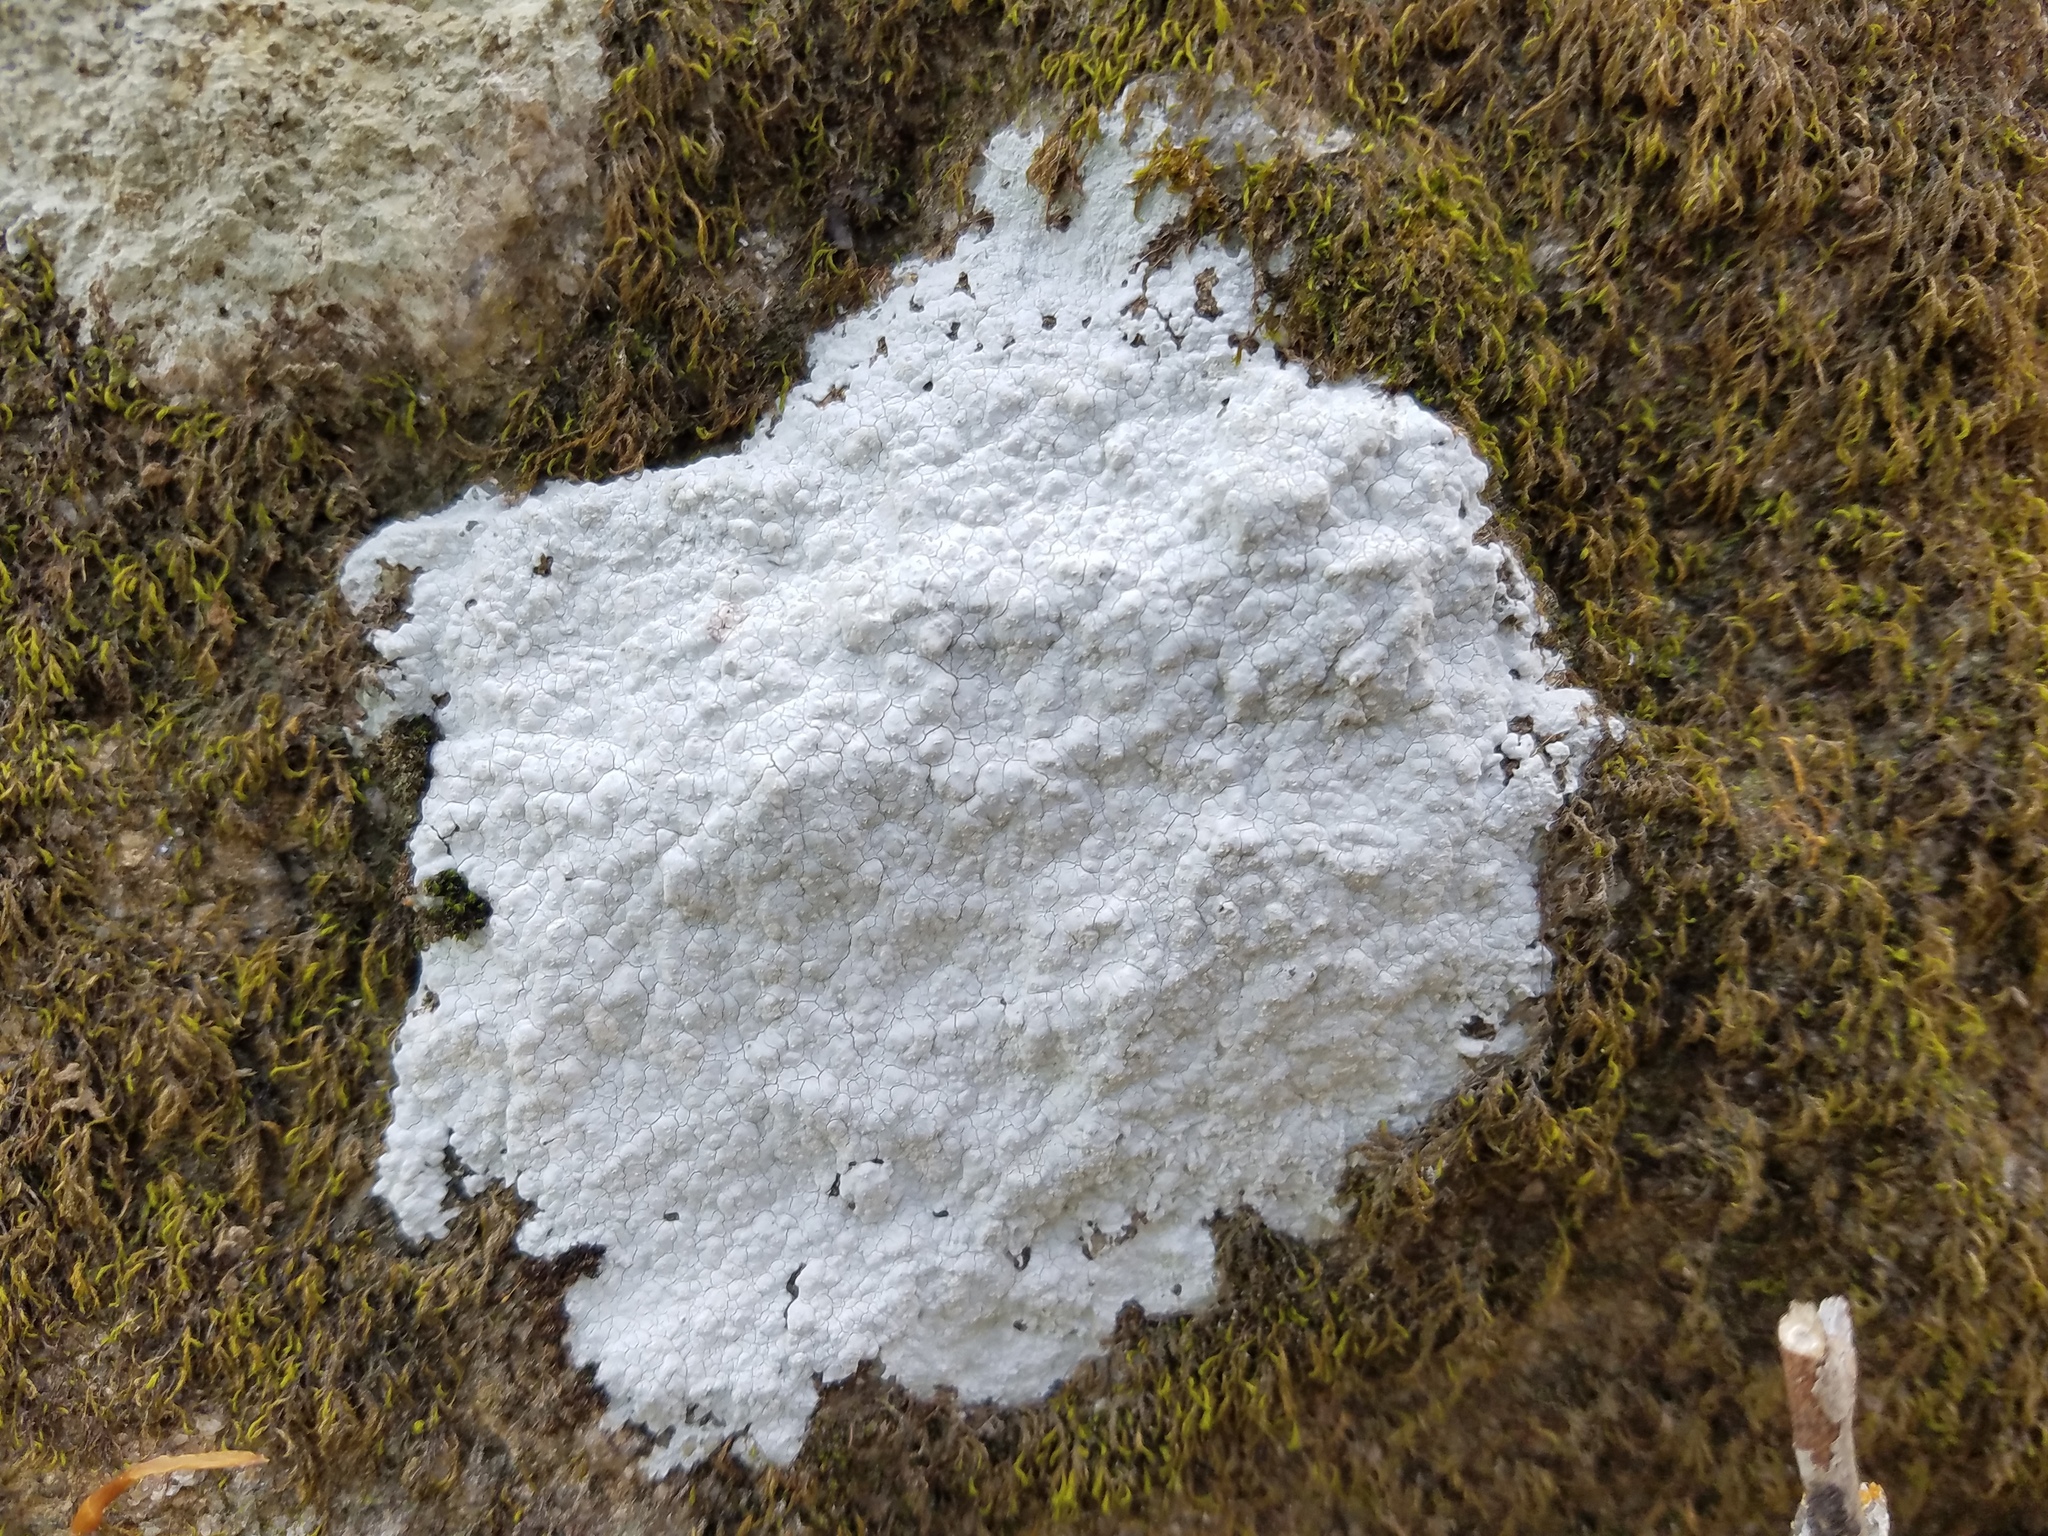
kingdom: Fungi
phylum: Ascomycota
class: Lecanoromycetes
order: Ostropales
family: Phlyctidaceae
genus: Phlyctis
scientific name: Phlyctis petraea
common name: Eggshell rock blaze
